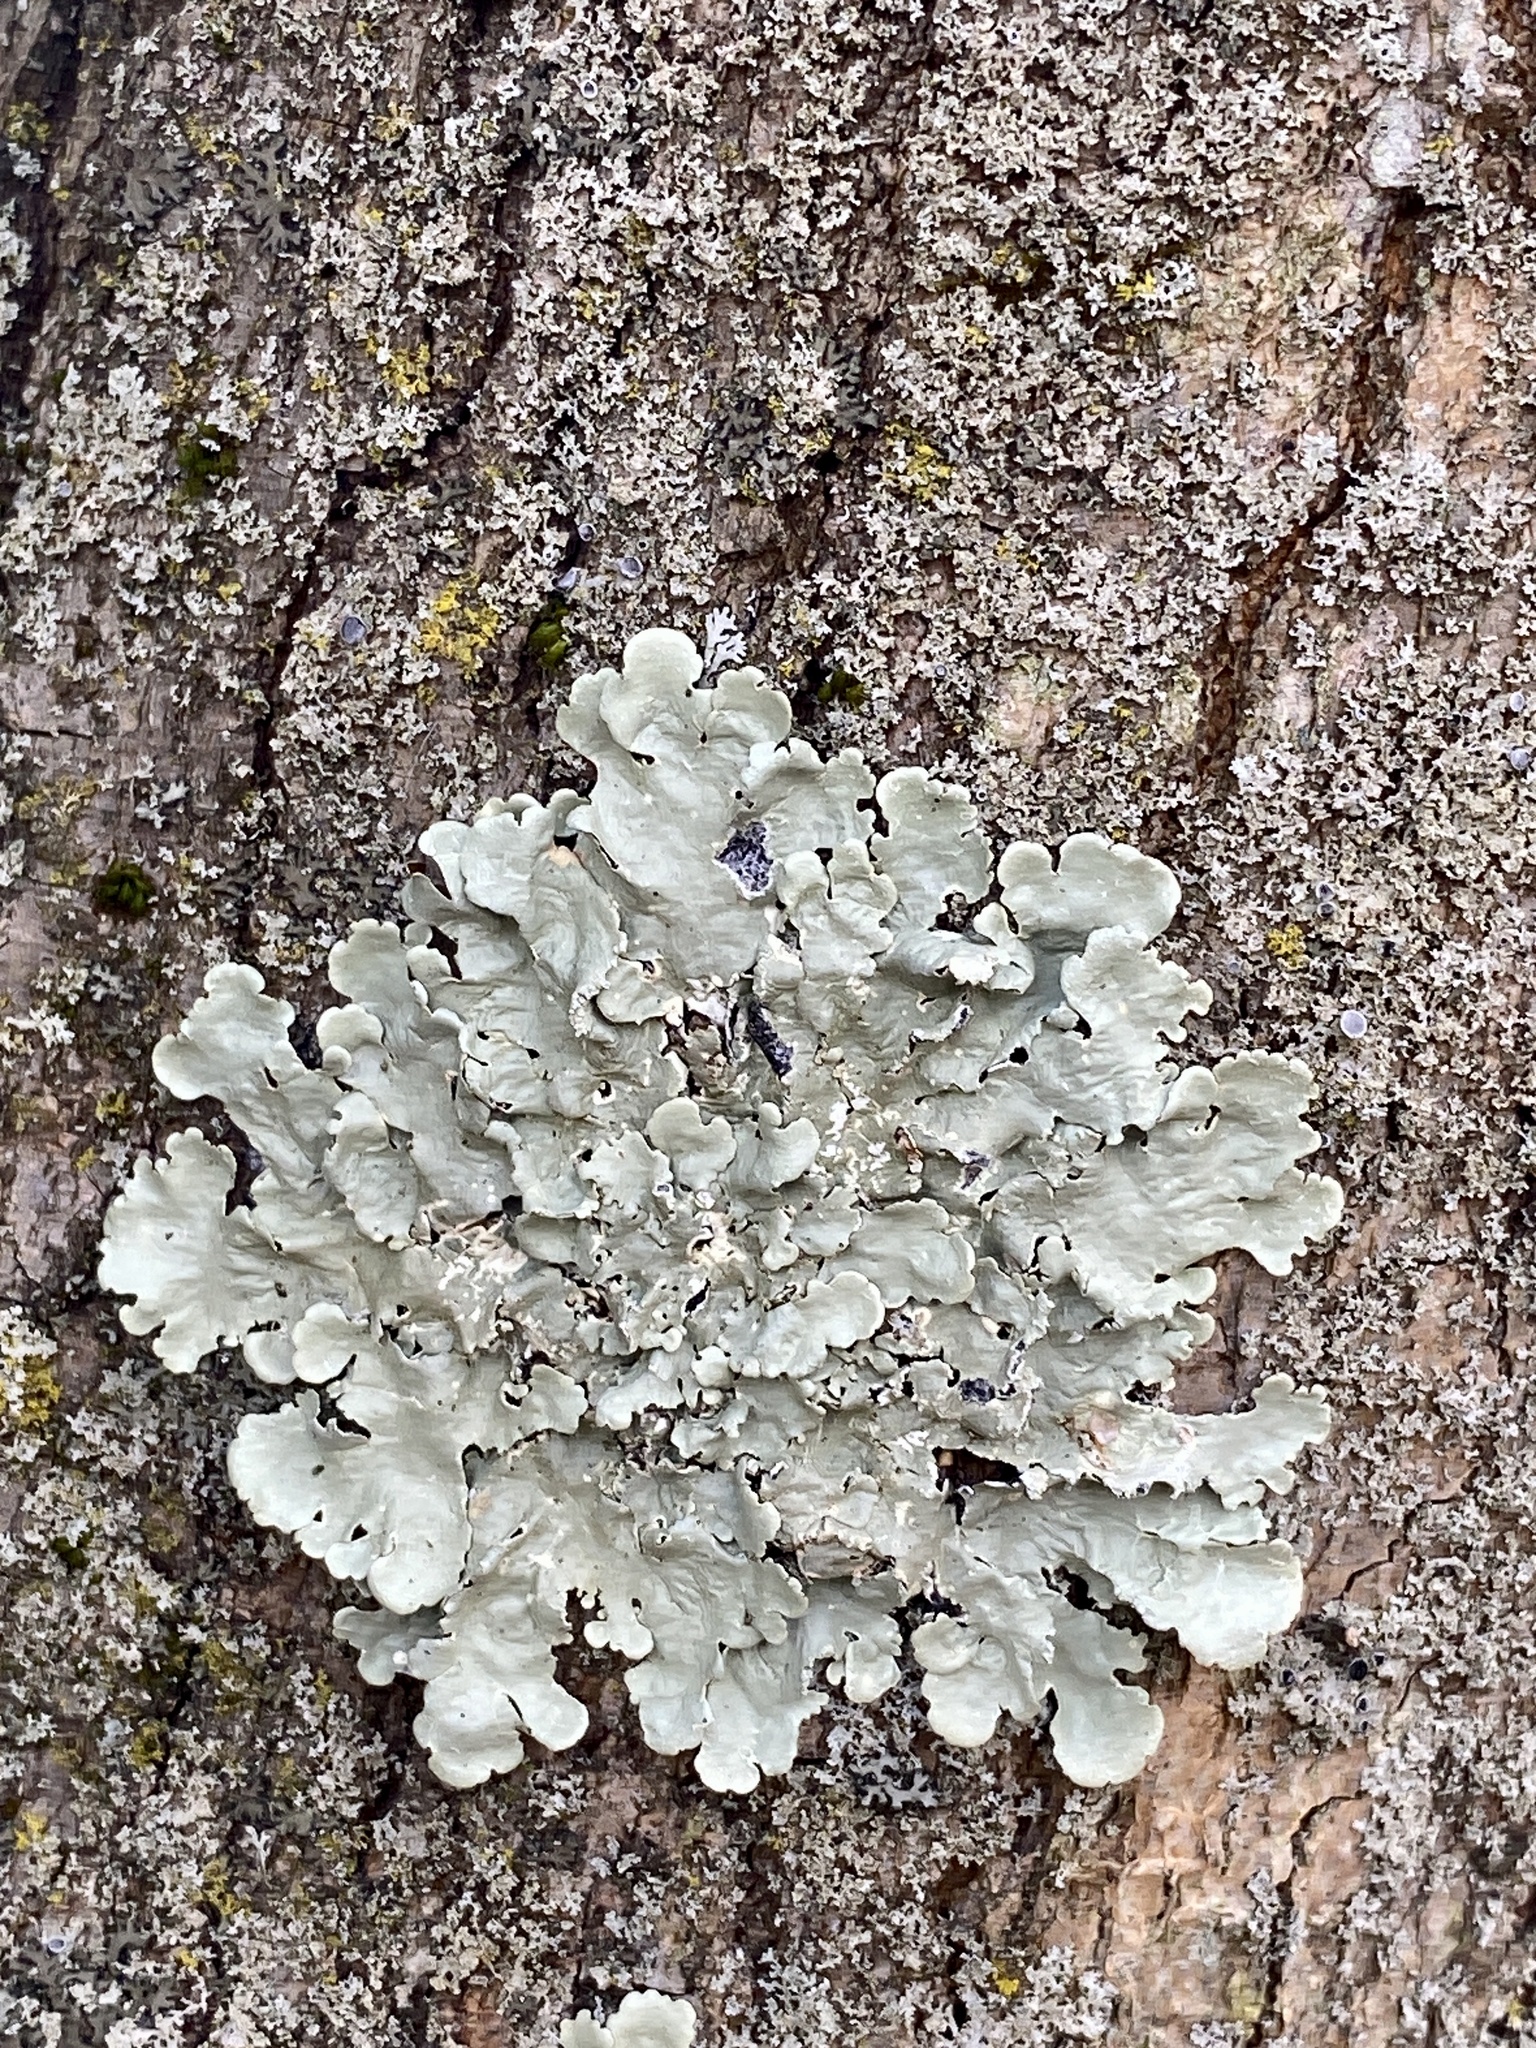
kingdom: Fungi
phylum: Ascomycota
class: Lecanoromycetes
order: Lecanorales
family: Parmeliaceae
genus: Flavoparmelia
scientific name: Flavoparmelia caperata
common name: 40-mile per hour lichen
